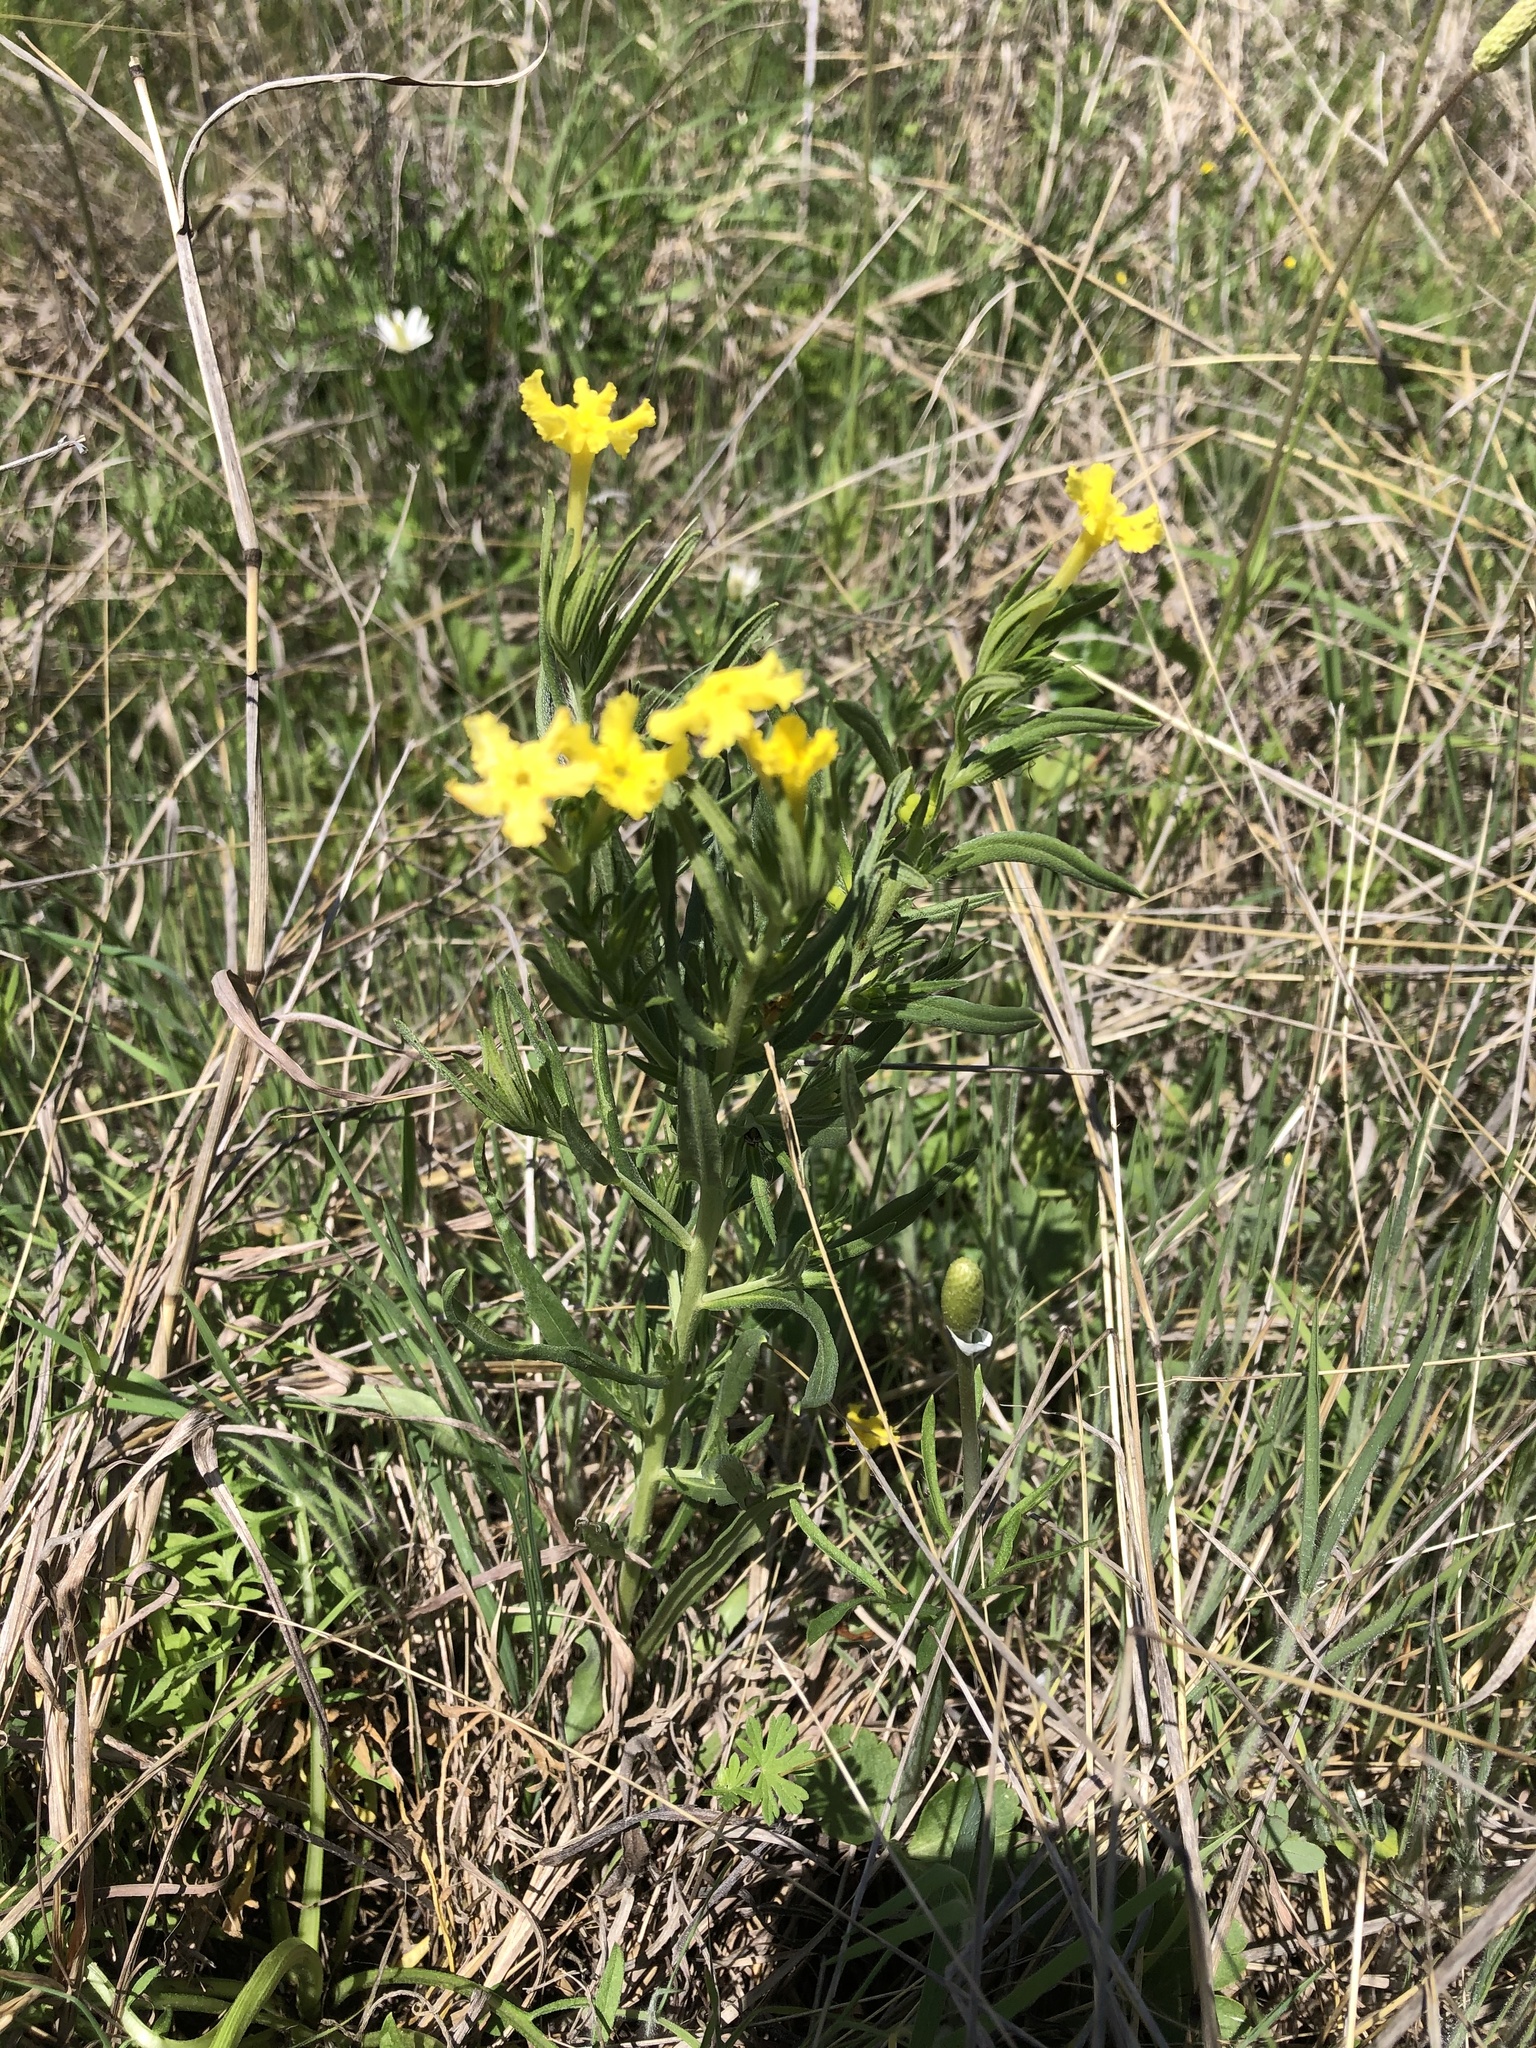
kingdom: Plantae
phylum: Tracheophyta
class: Magnoliopsida
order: Boraginales
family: Boraginaceae
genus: Lithospermum
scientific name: Lithospermum incisum
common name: Fringed gromwell
